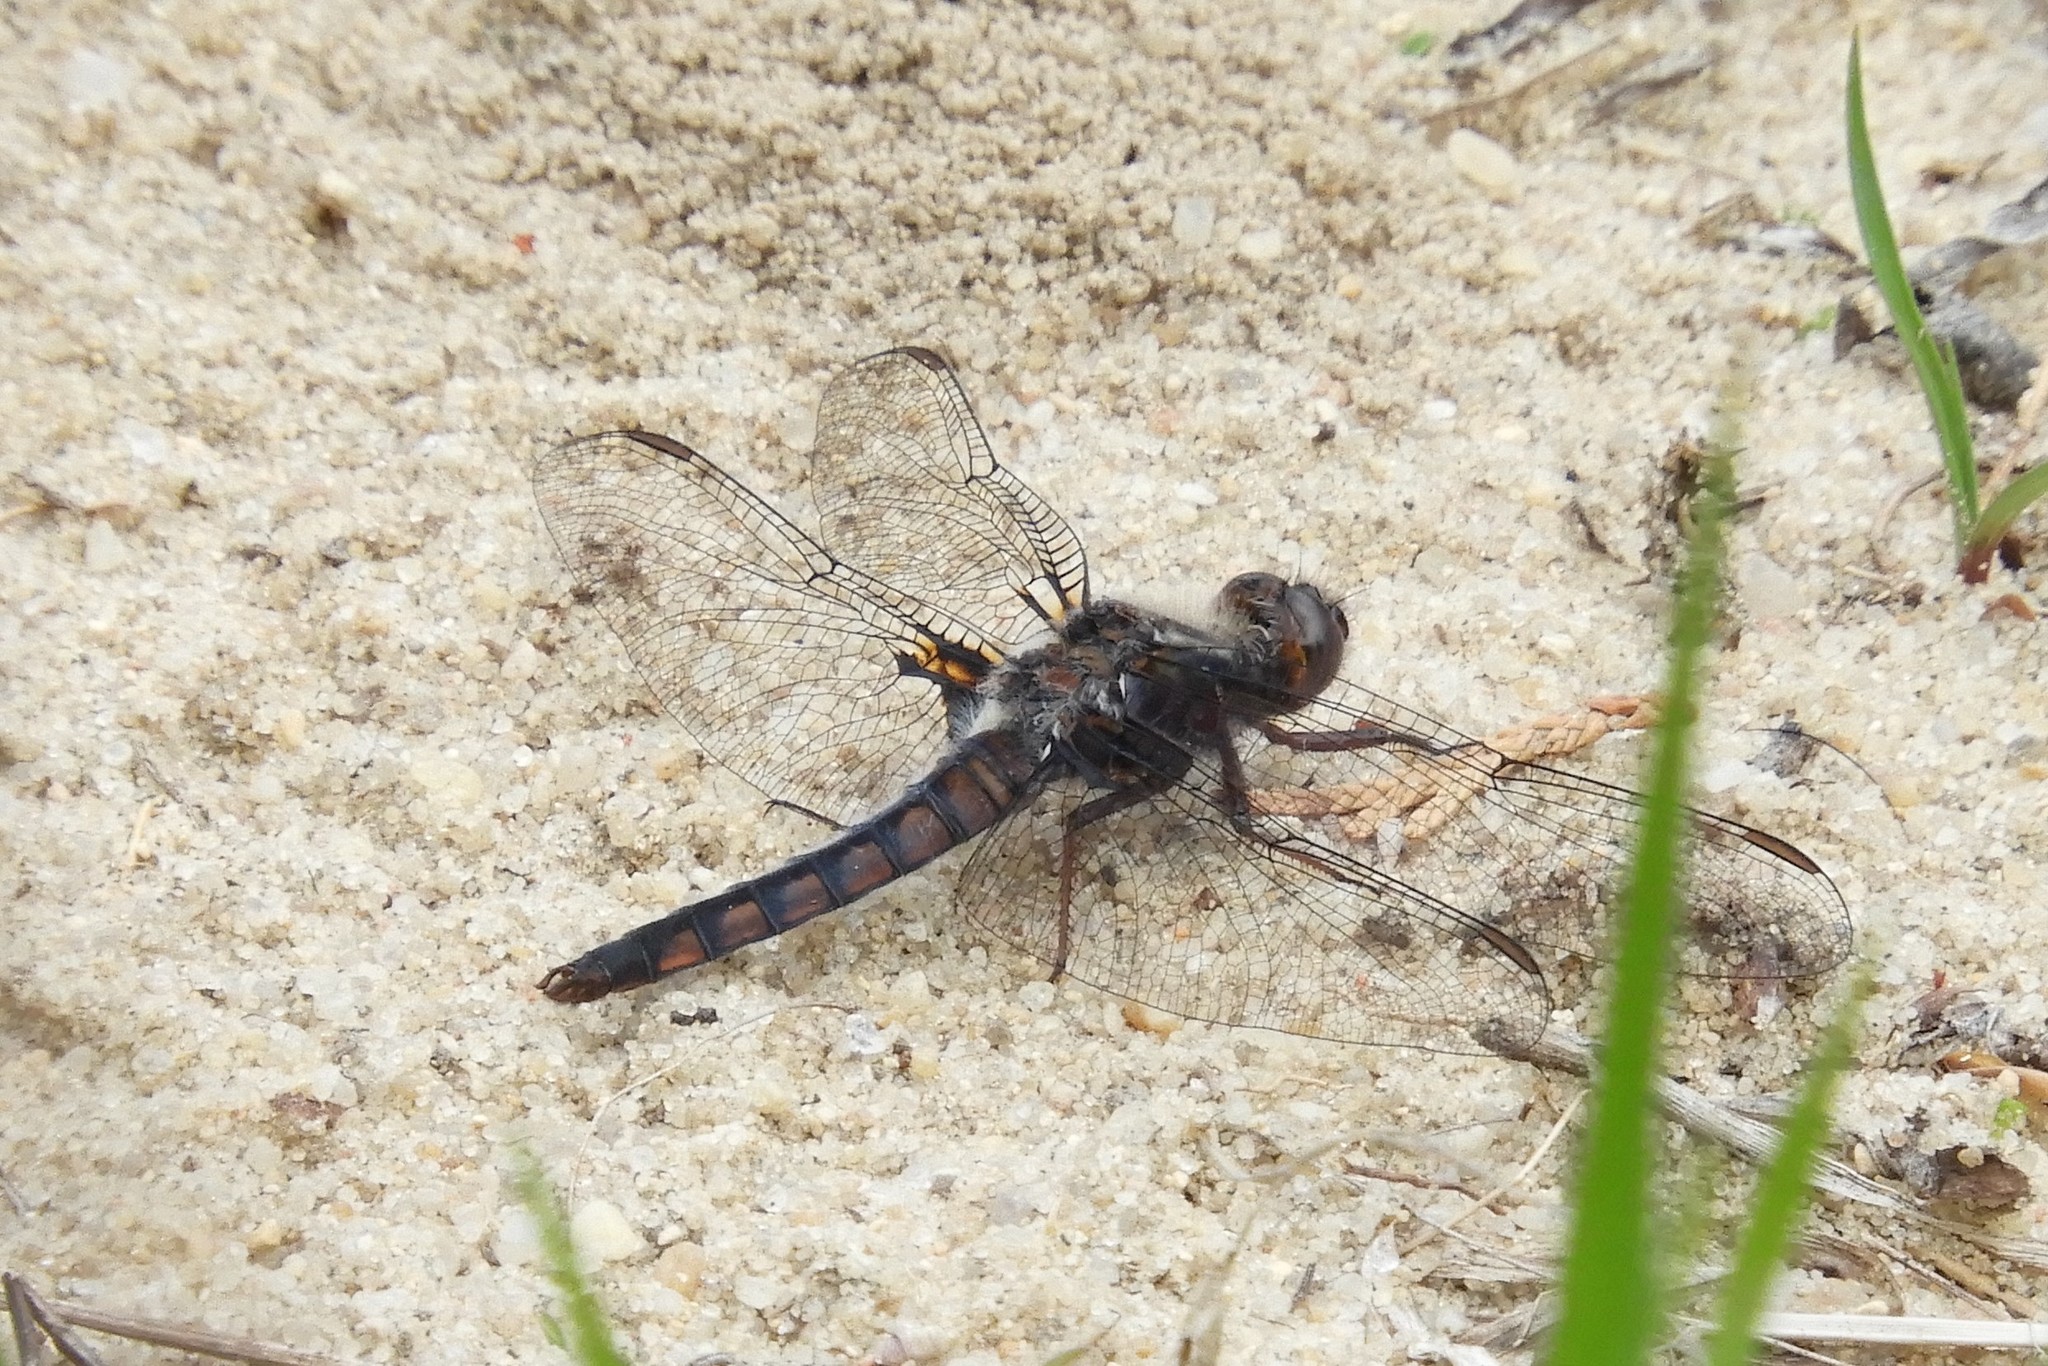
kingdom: Animalia
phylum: Arthropoda
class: Insecta
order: Odonata
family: Libellulidae
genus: Ladona
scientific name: Ladona deplanata
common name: Blue corporal
